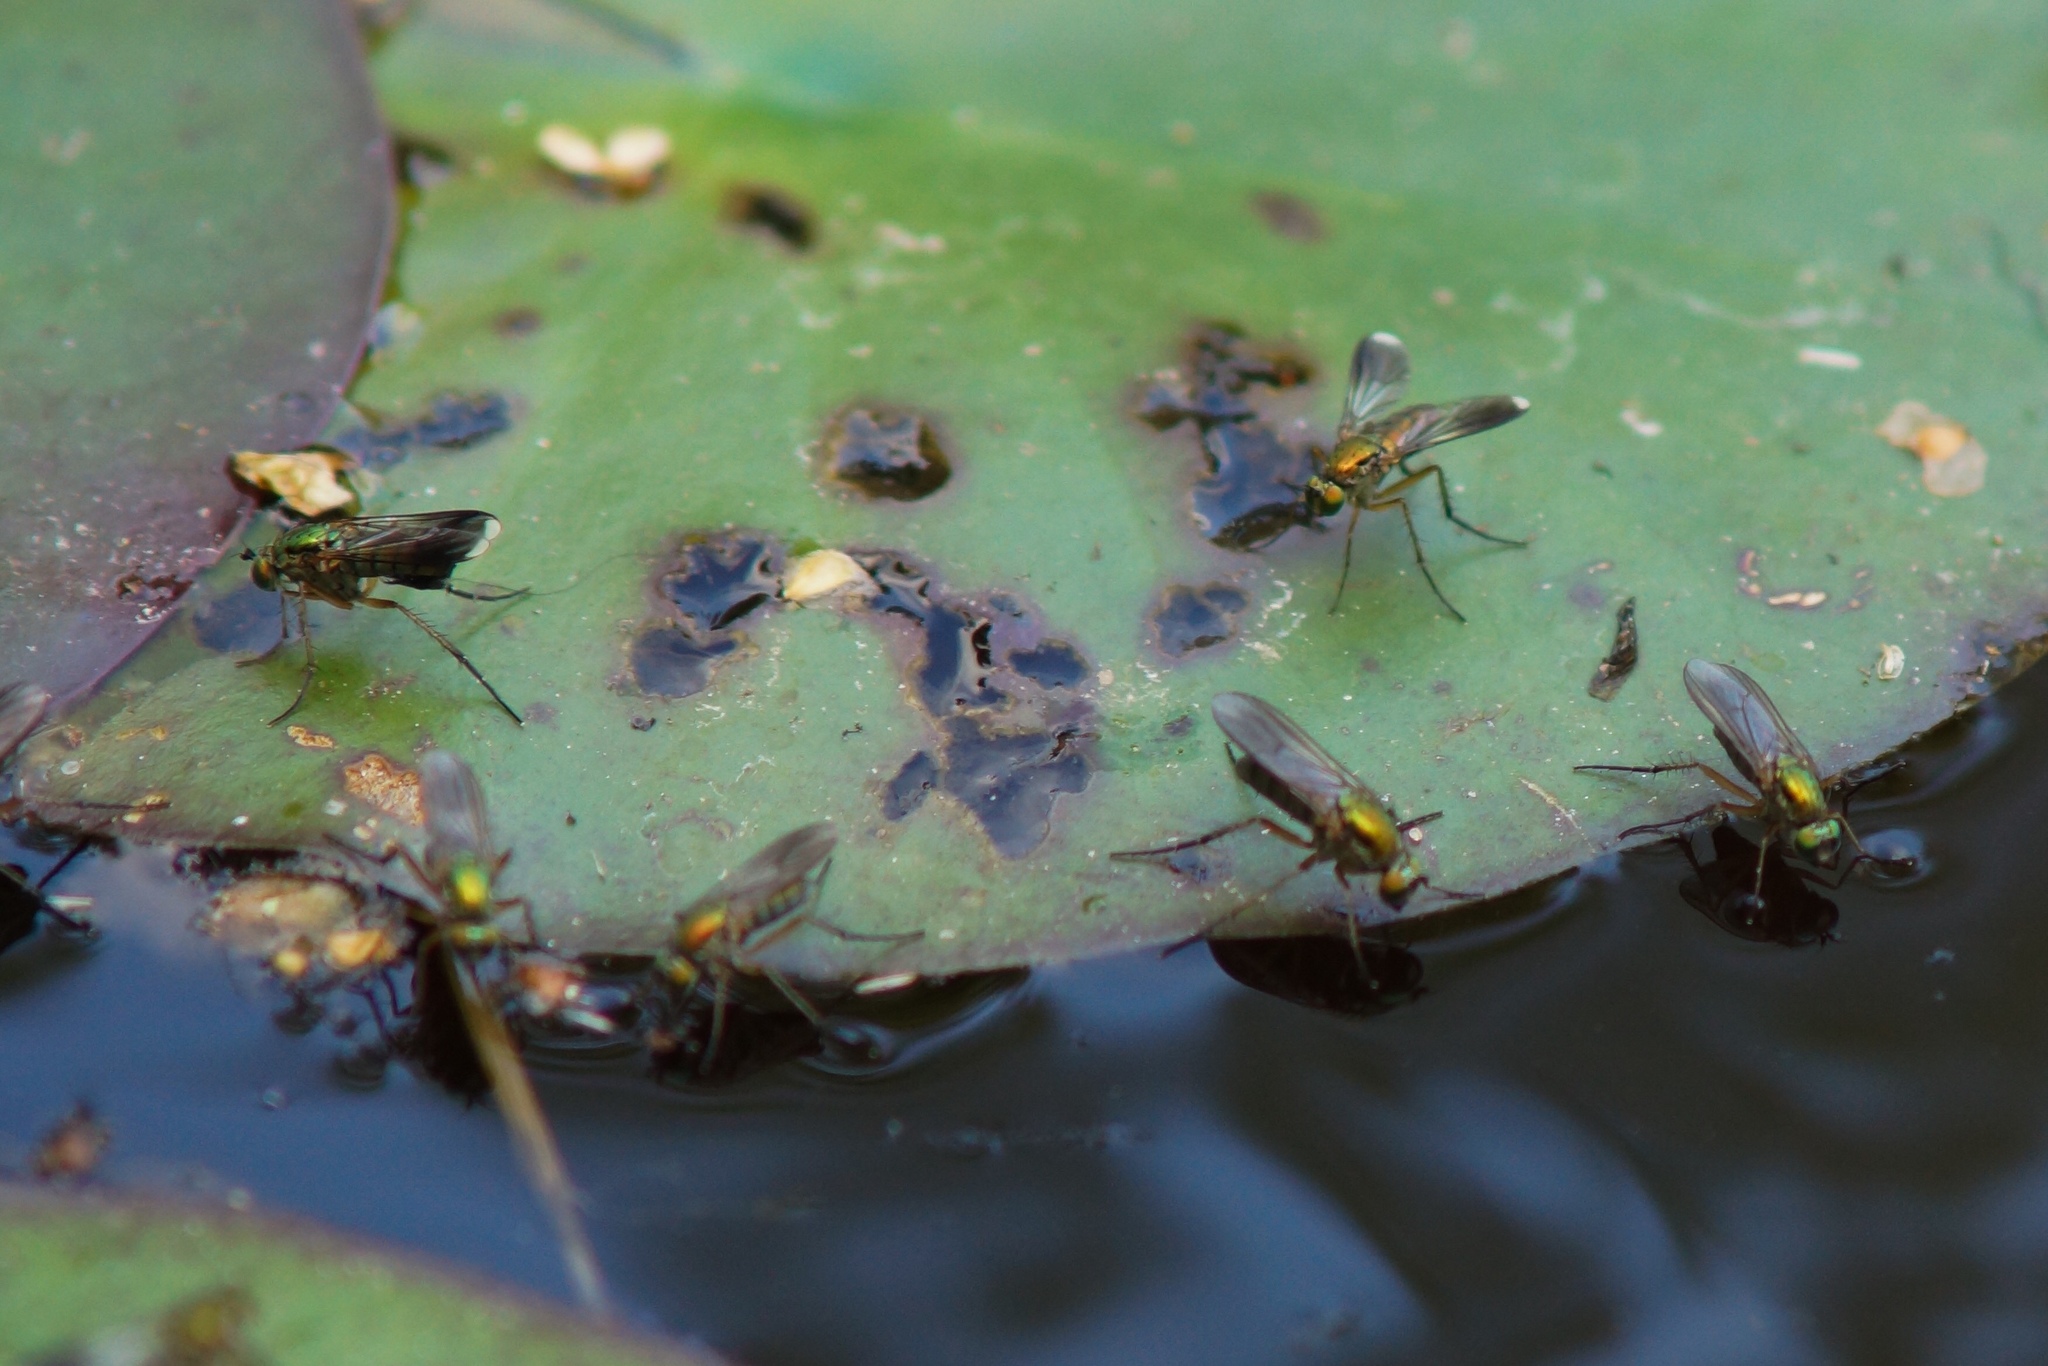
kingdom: Animalia
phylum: Arthropoda
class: Insecta
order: Diptera
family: Dolichopodidae
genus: Poecilobothrus
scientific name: Poecilobothrus nobilitatus
